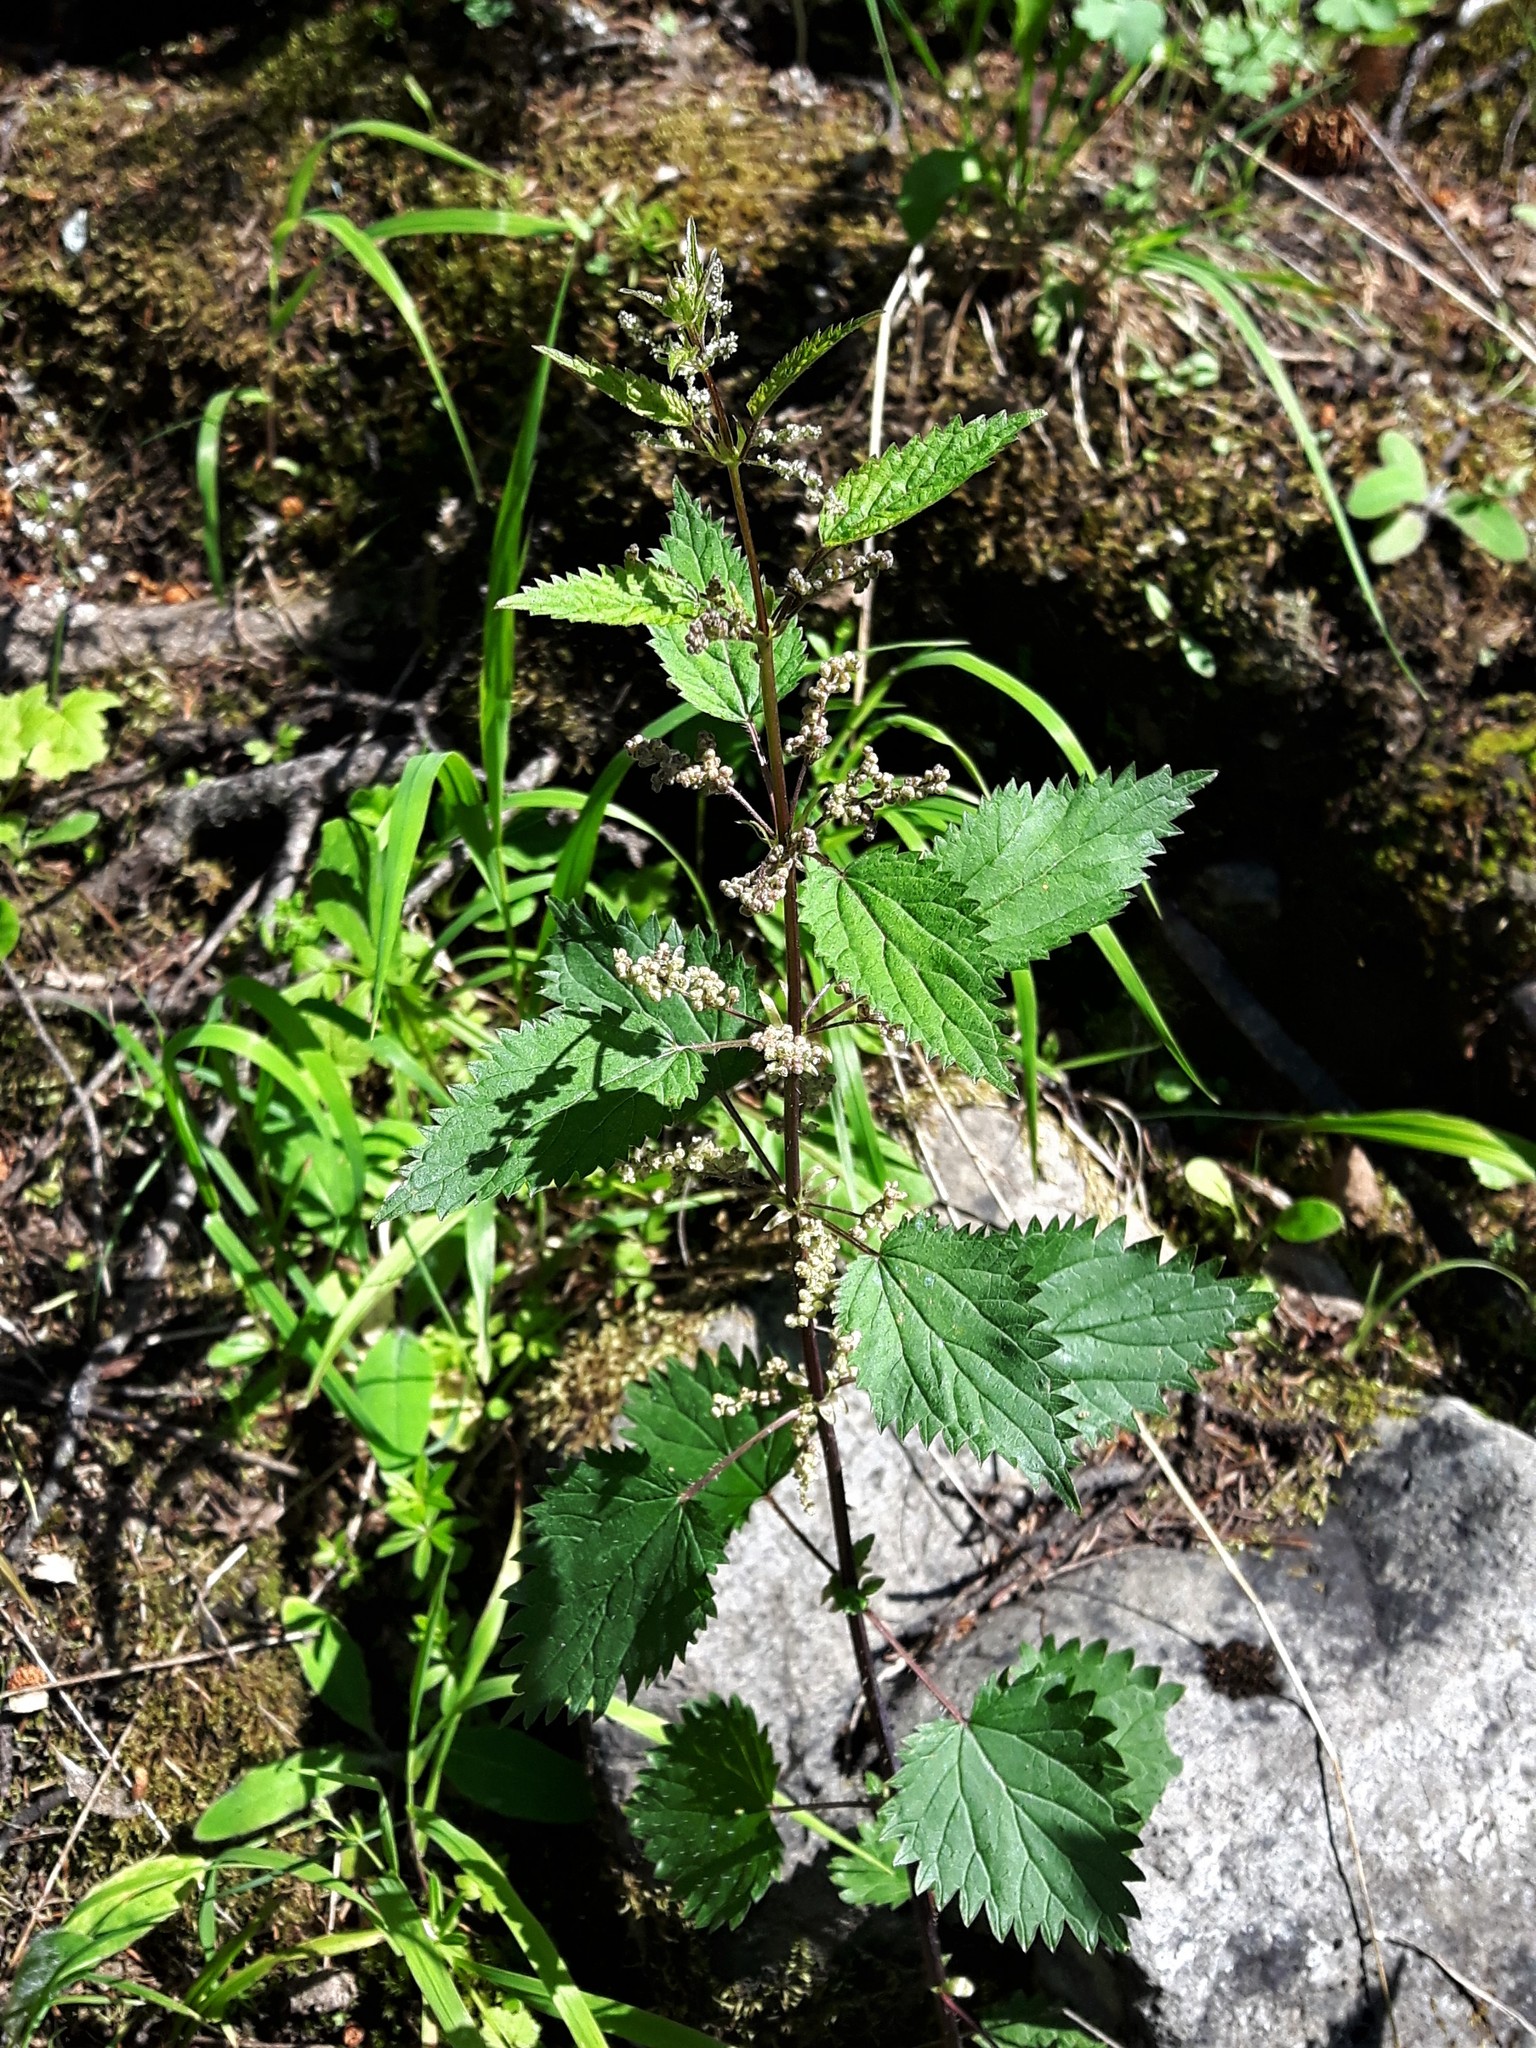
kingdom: Plantae
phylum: Tracheophyta
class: Magnoliopsida
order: Rosales
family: Urticaceae
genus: Urtica
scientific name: Urtica gracilis
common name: Slender stinging nettle
